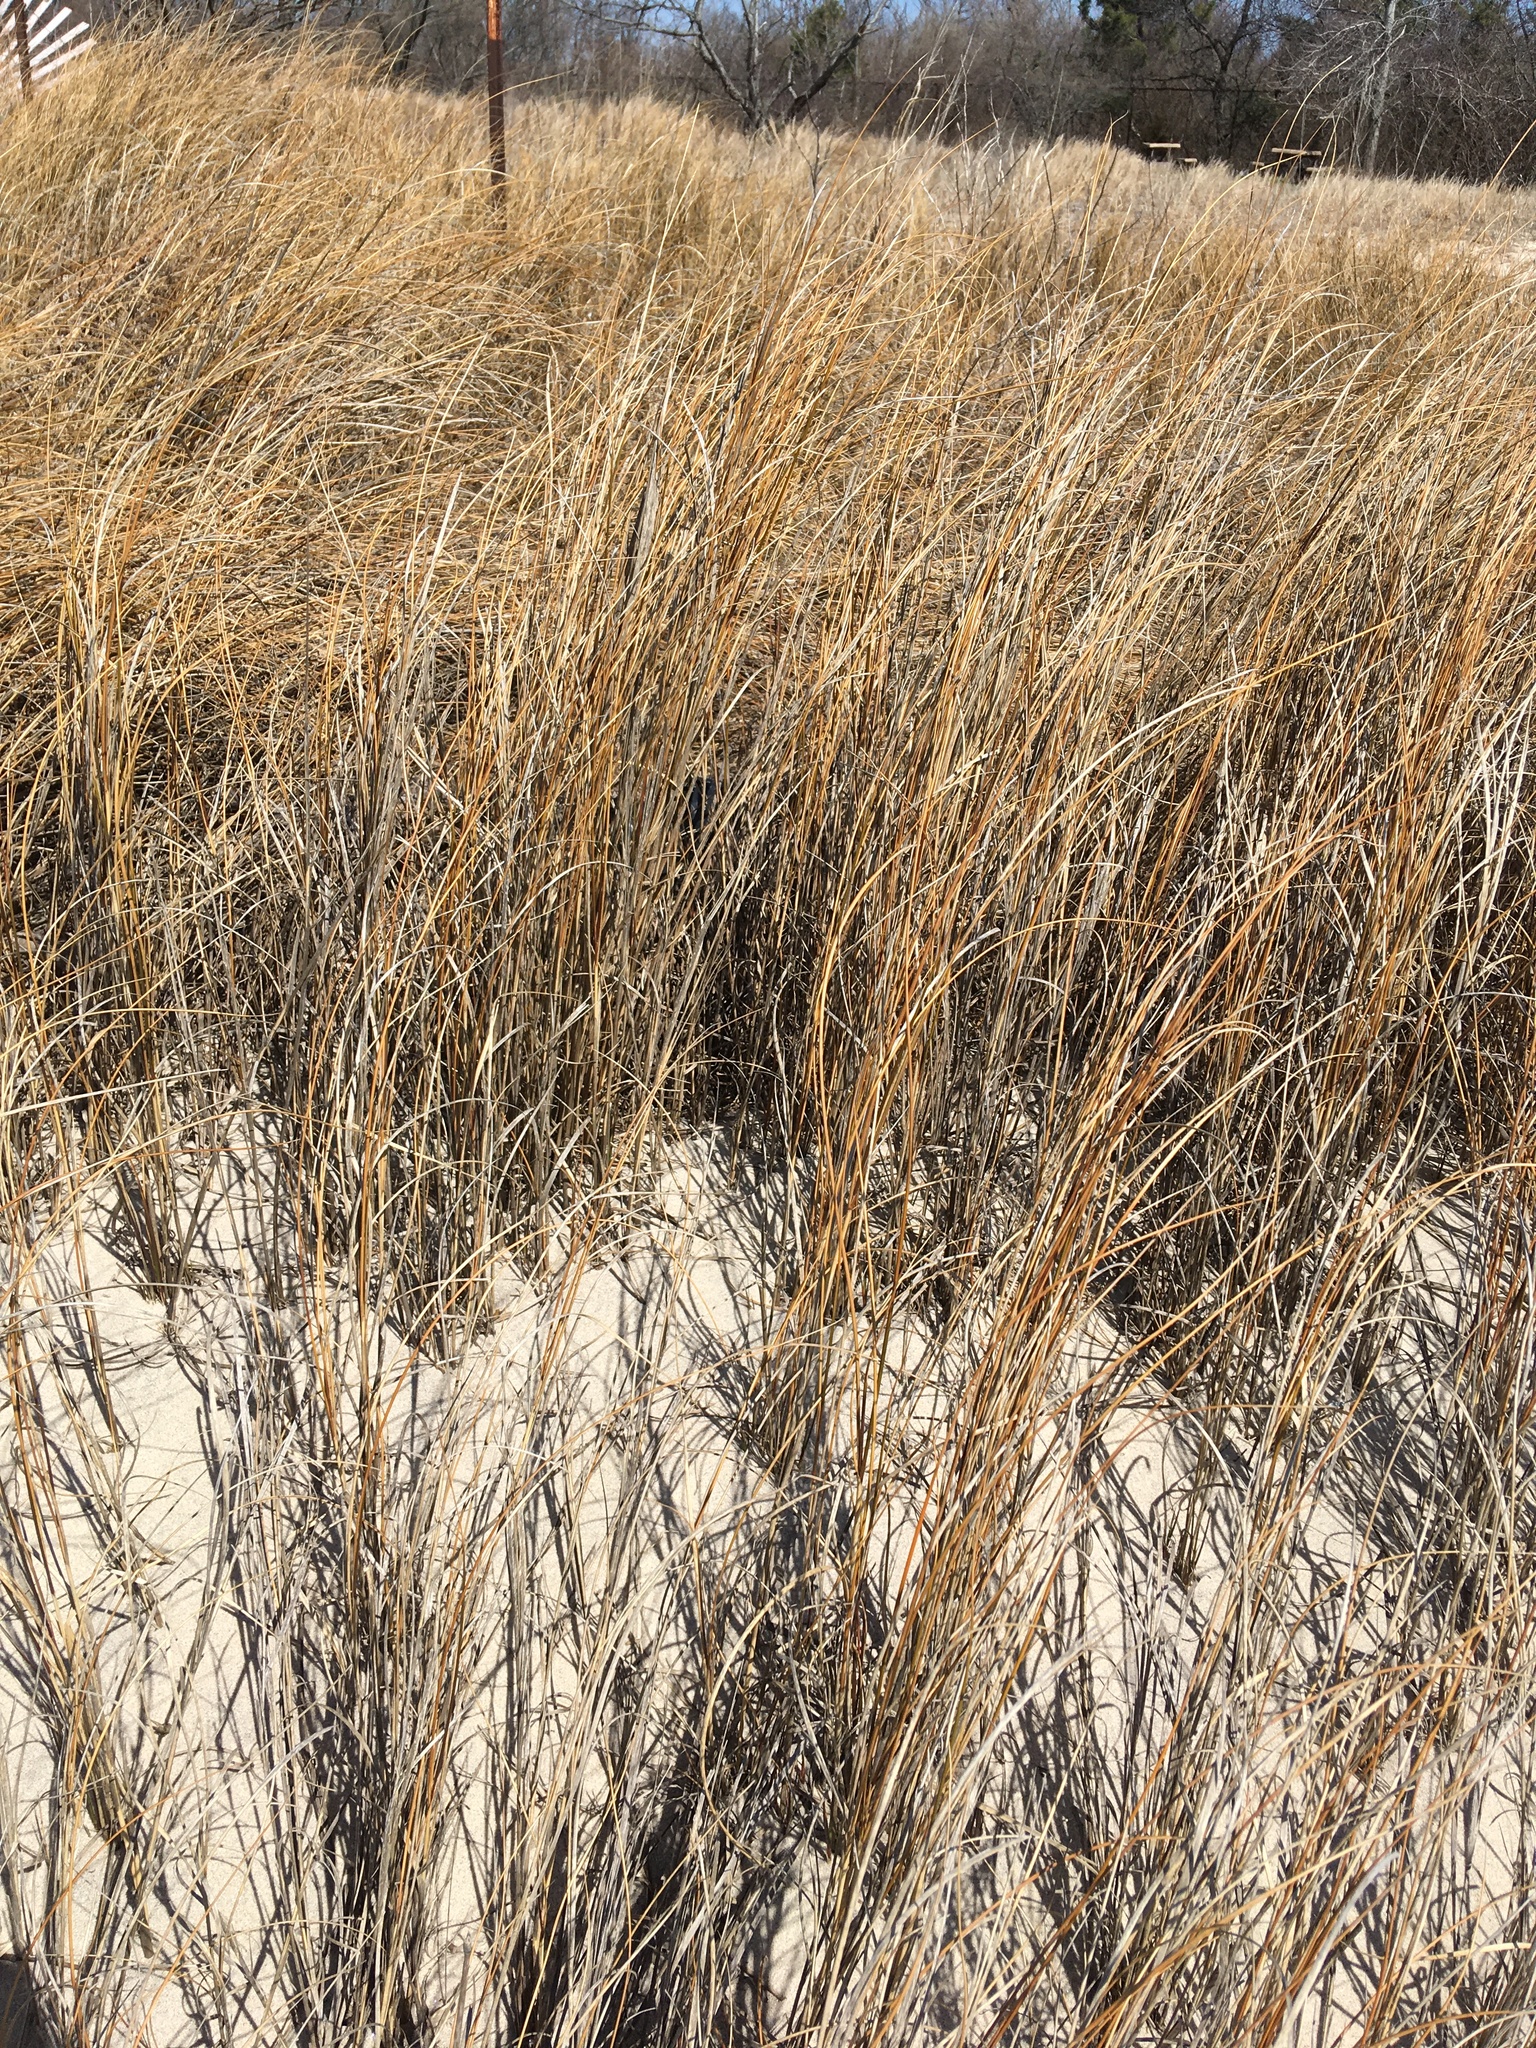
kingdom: Plantae
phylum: Tracheophyta
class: Liliopsida
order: Poales
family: Poaceae
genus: Sporobolus
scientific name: Sporobolus pumilus
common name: Highwater grass
